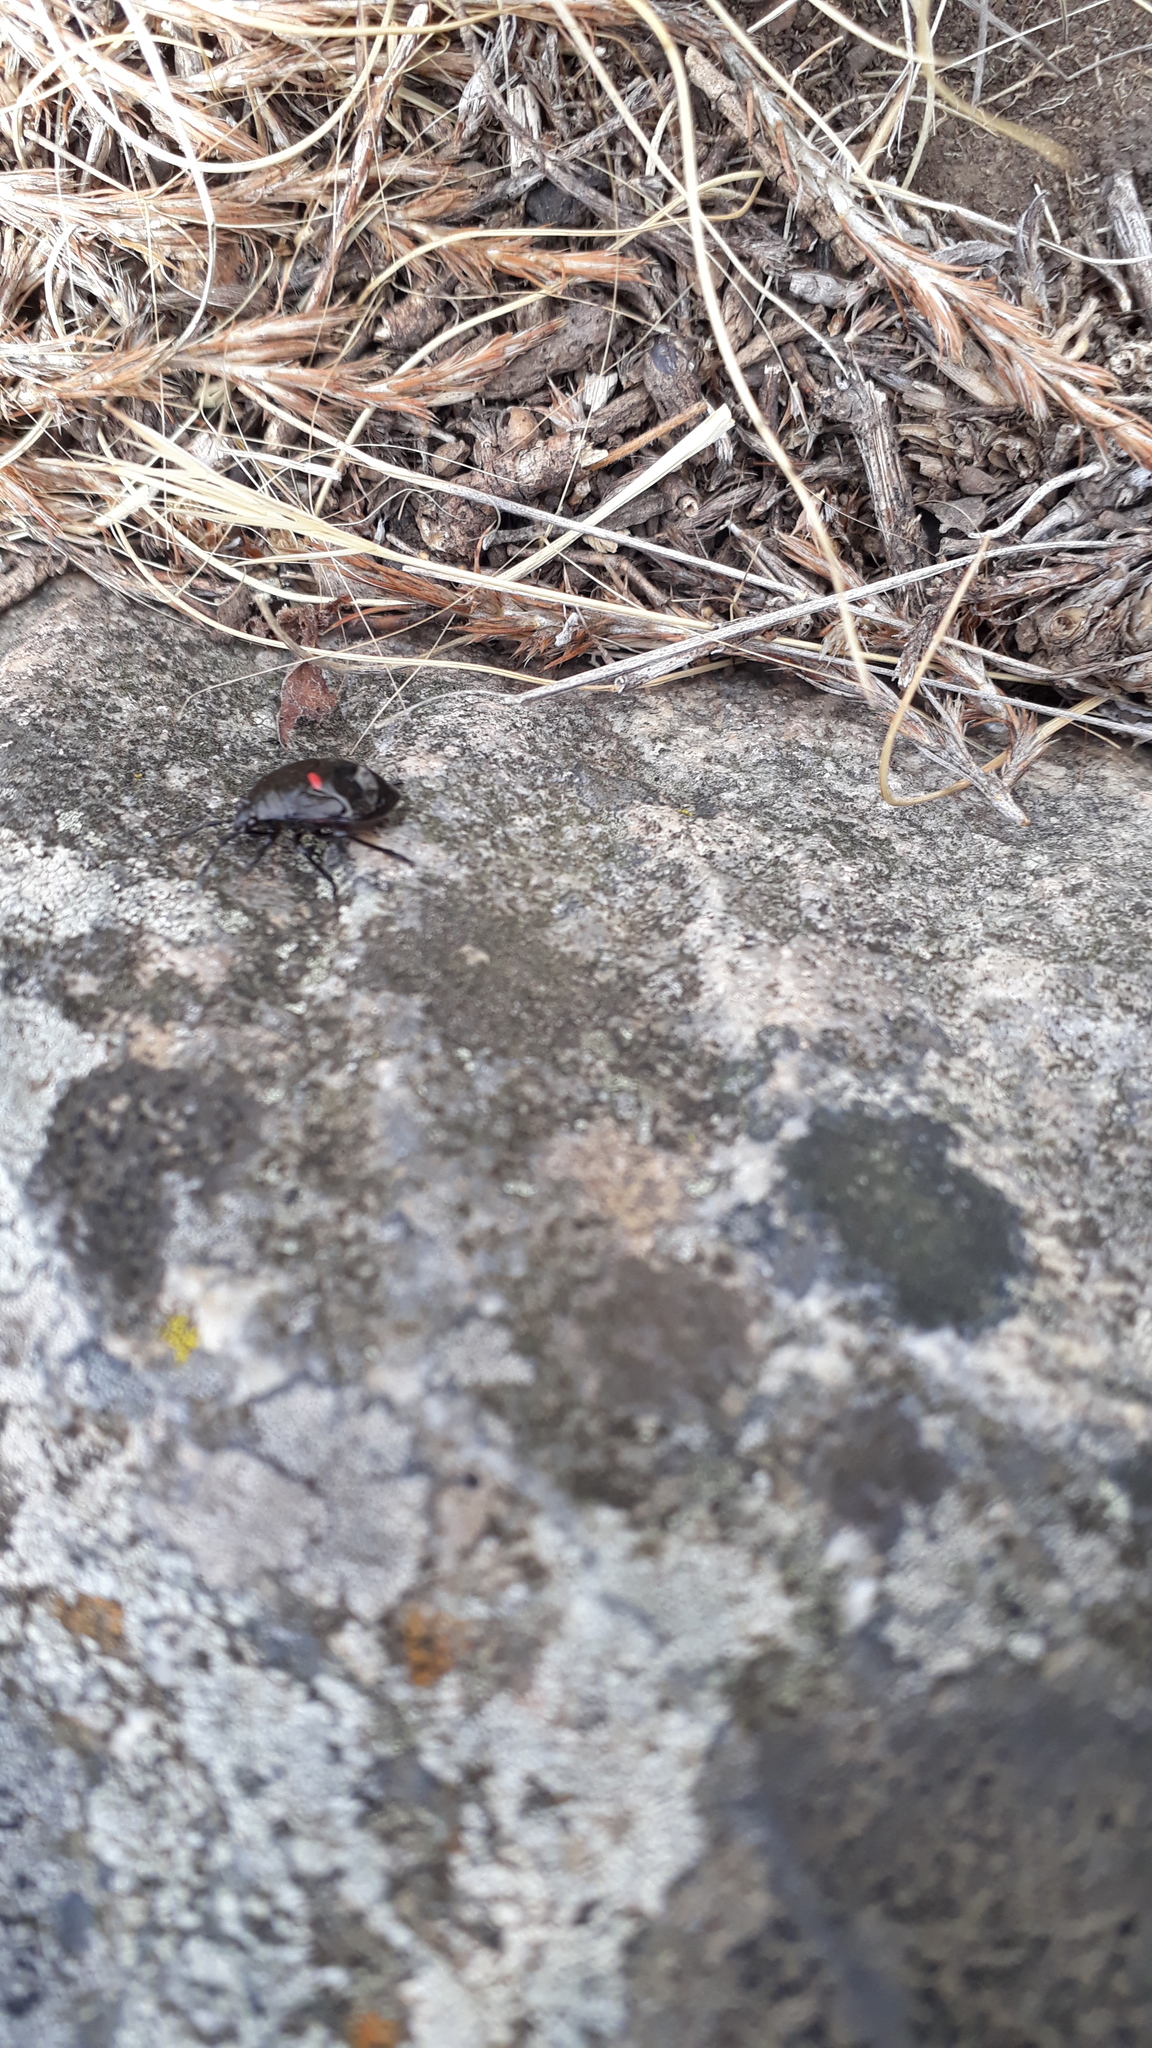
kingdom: Animalia
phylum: Arthropoda
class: Insecta
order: Hemiptera
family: Largidae
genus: Largus
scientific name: Largus rufipennis
